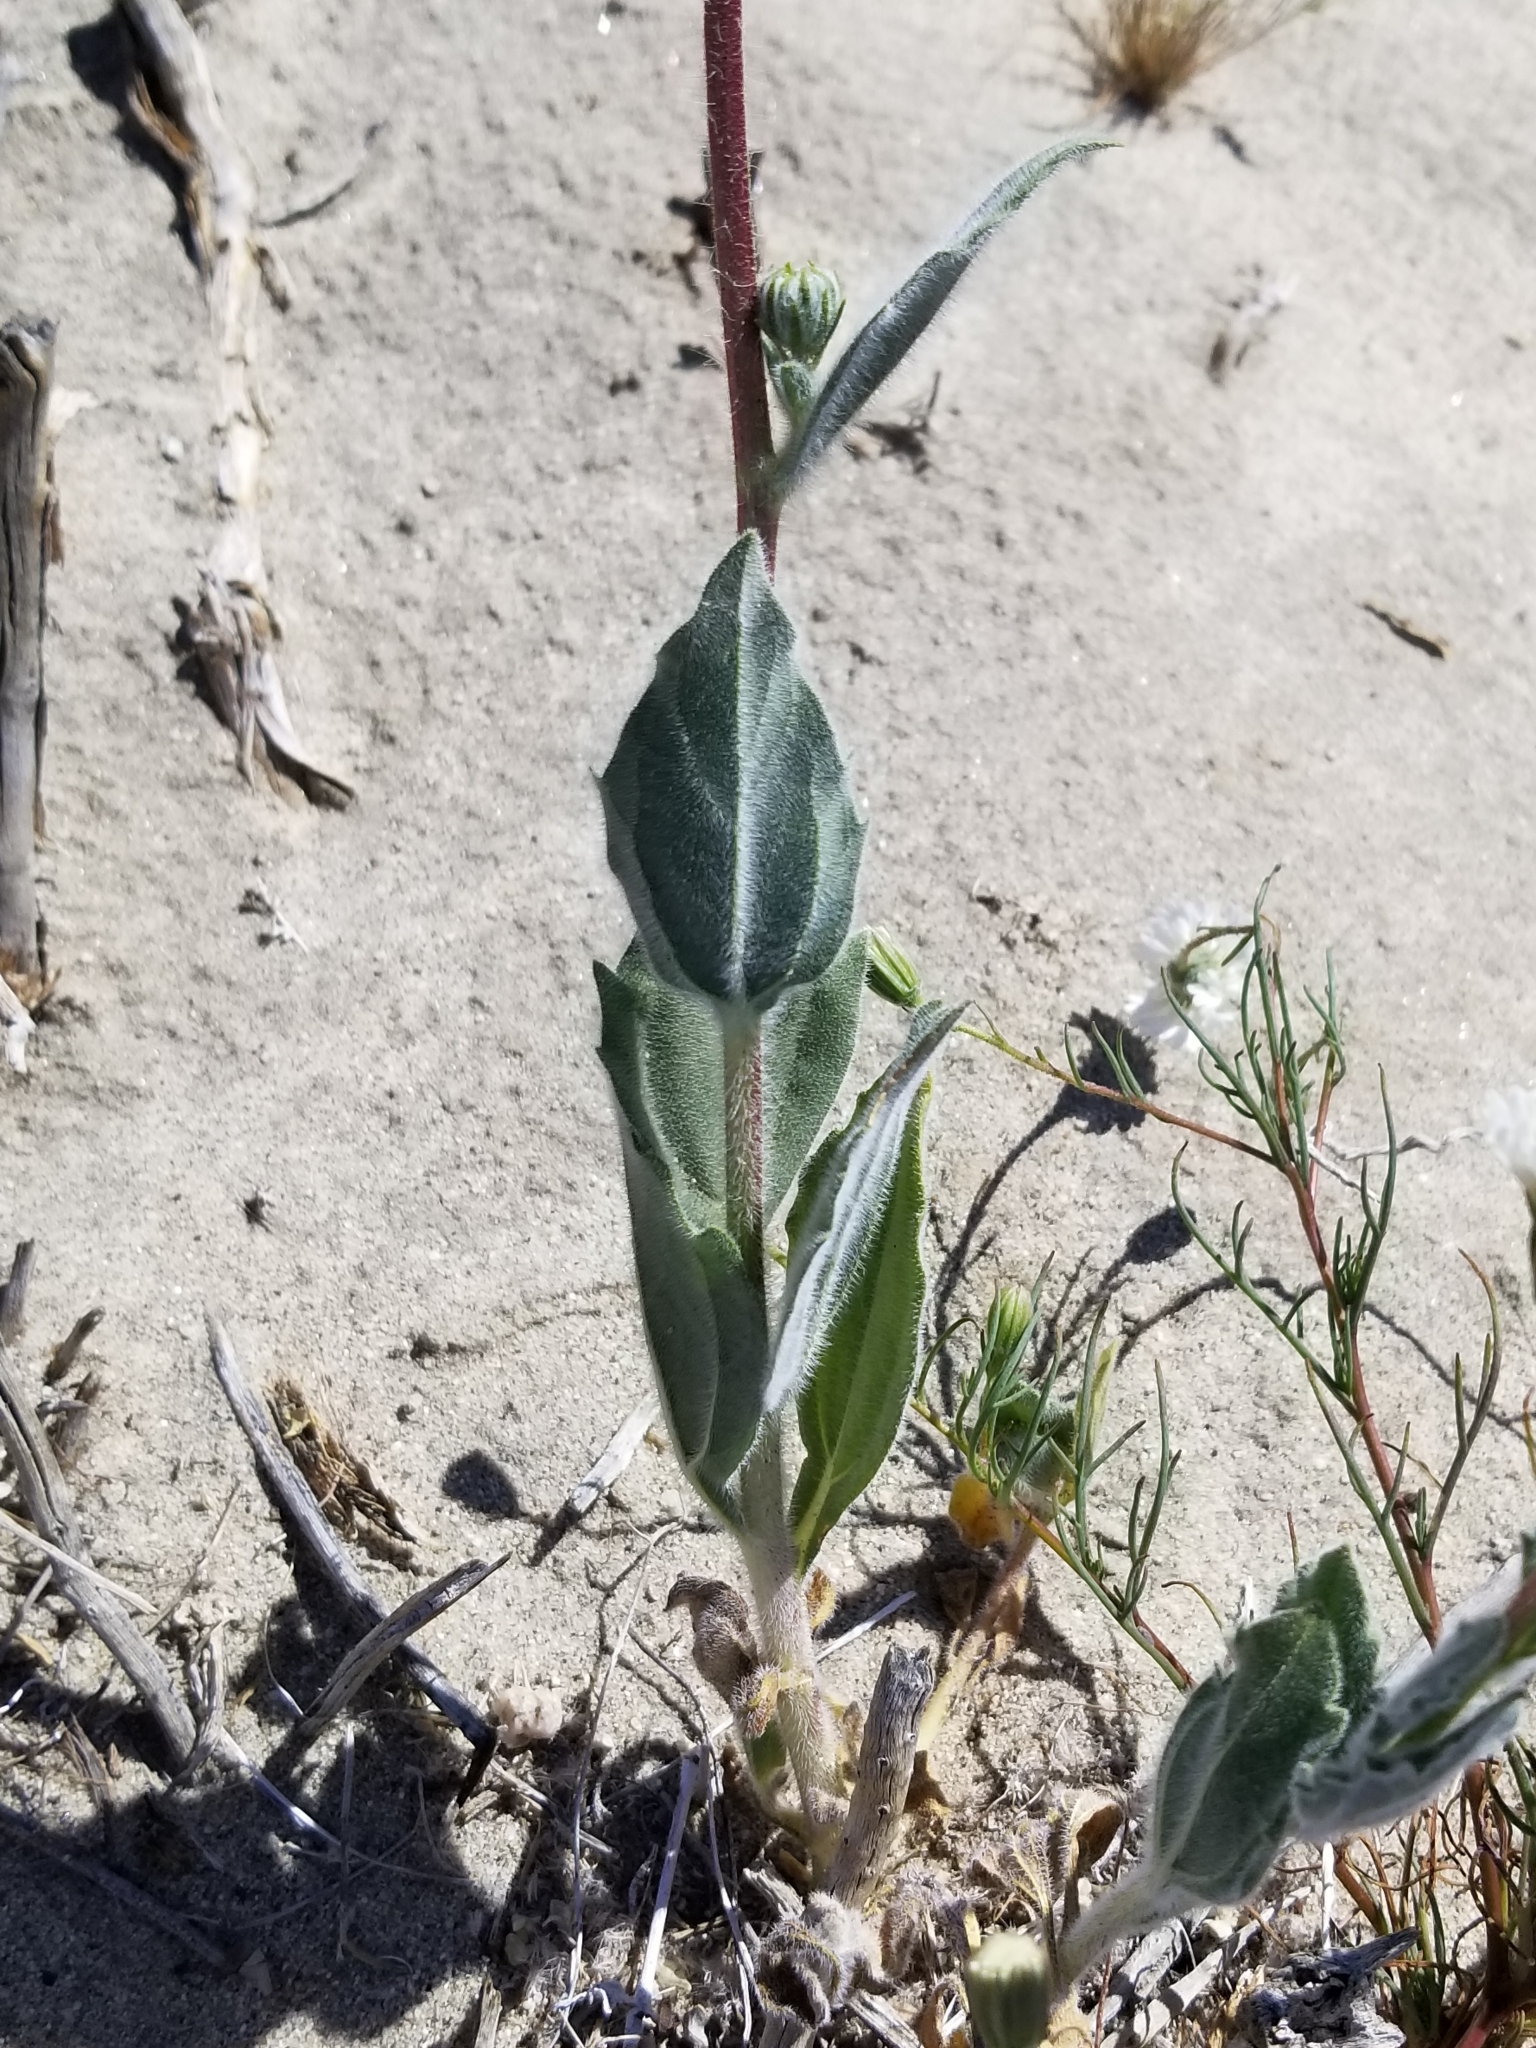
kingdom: Plantae
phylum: Tracheophyta
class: Magnoliopsida
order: Asterales
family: Asteraceae
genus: Geraea
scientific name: Geraea canescens
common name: Desert-gold
